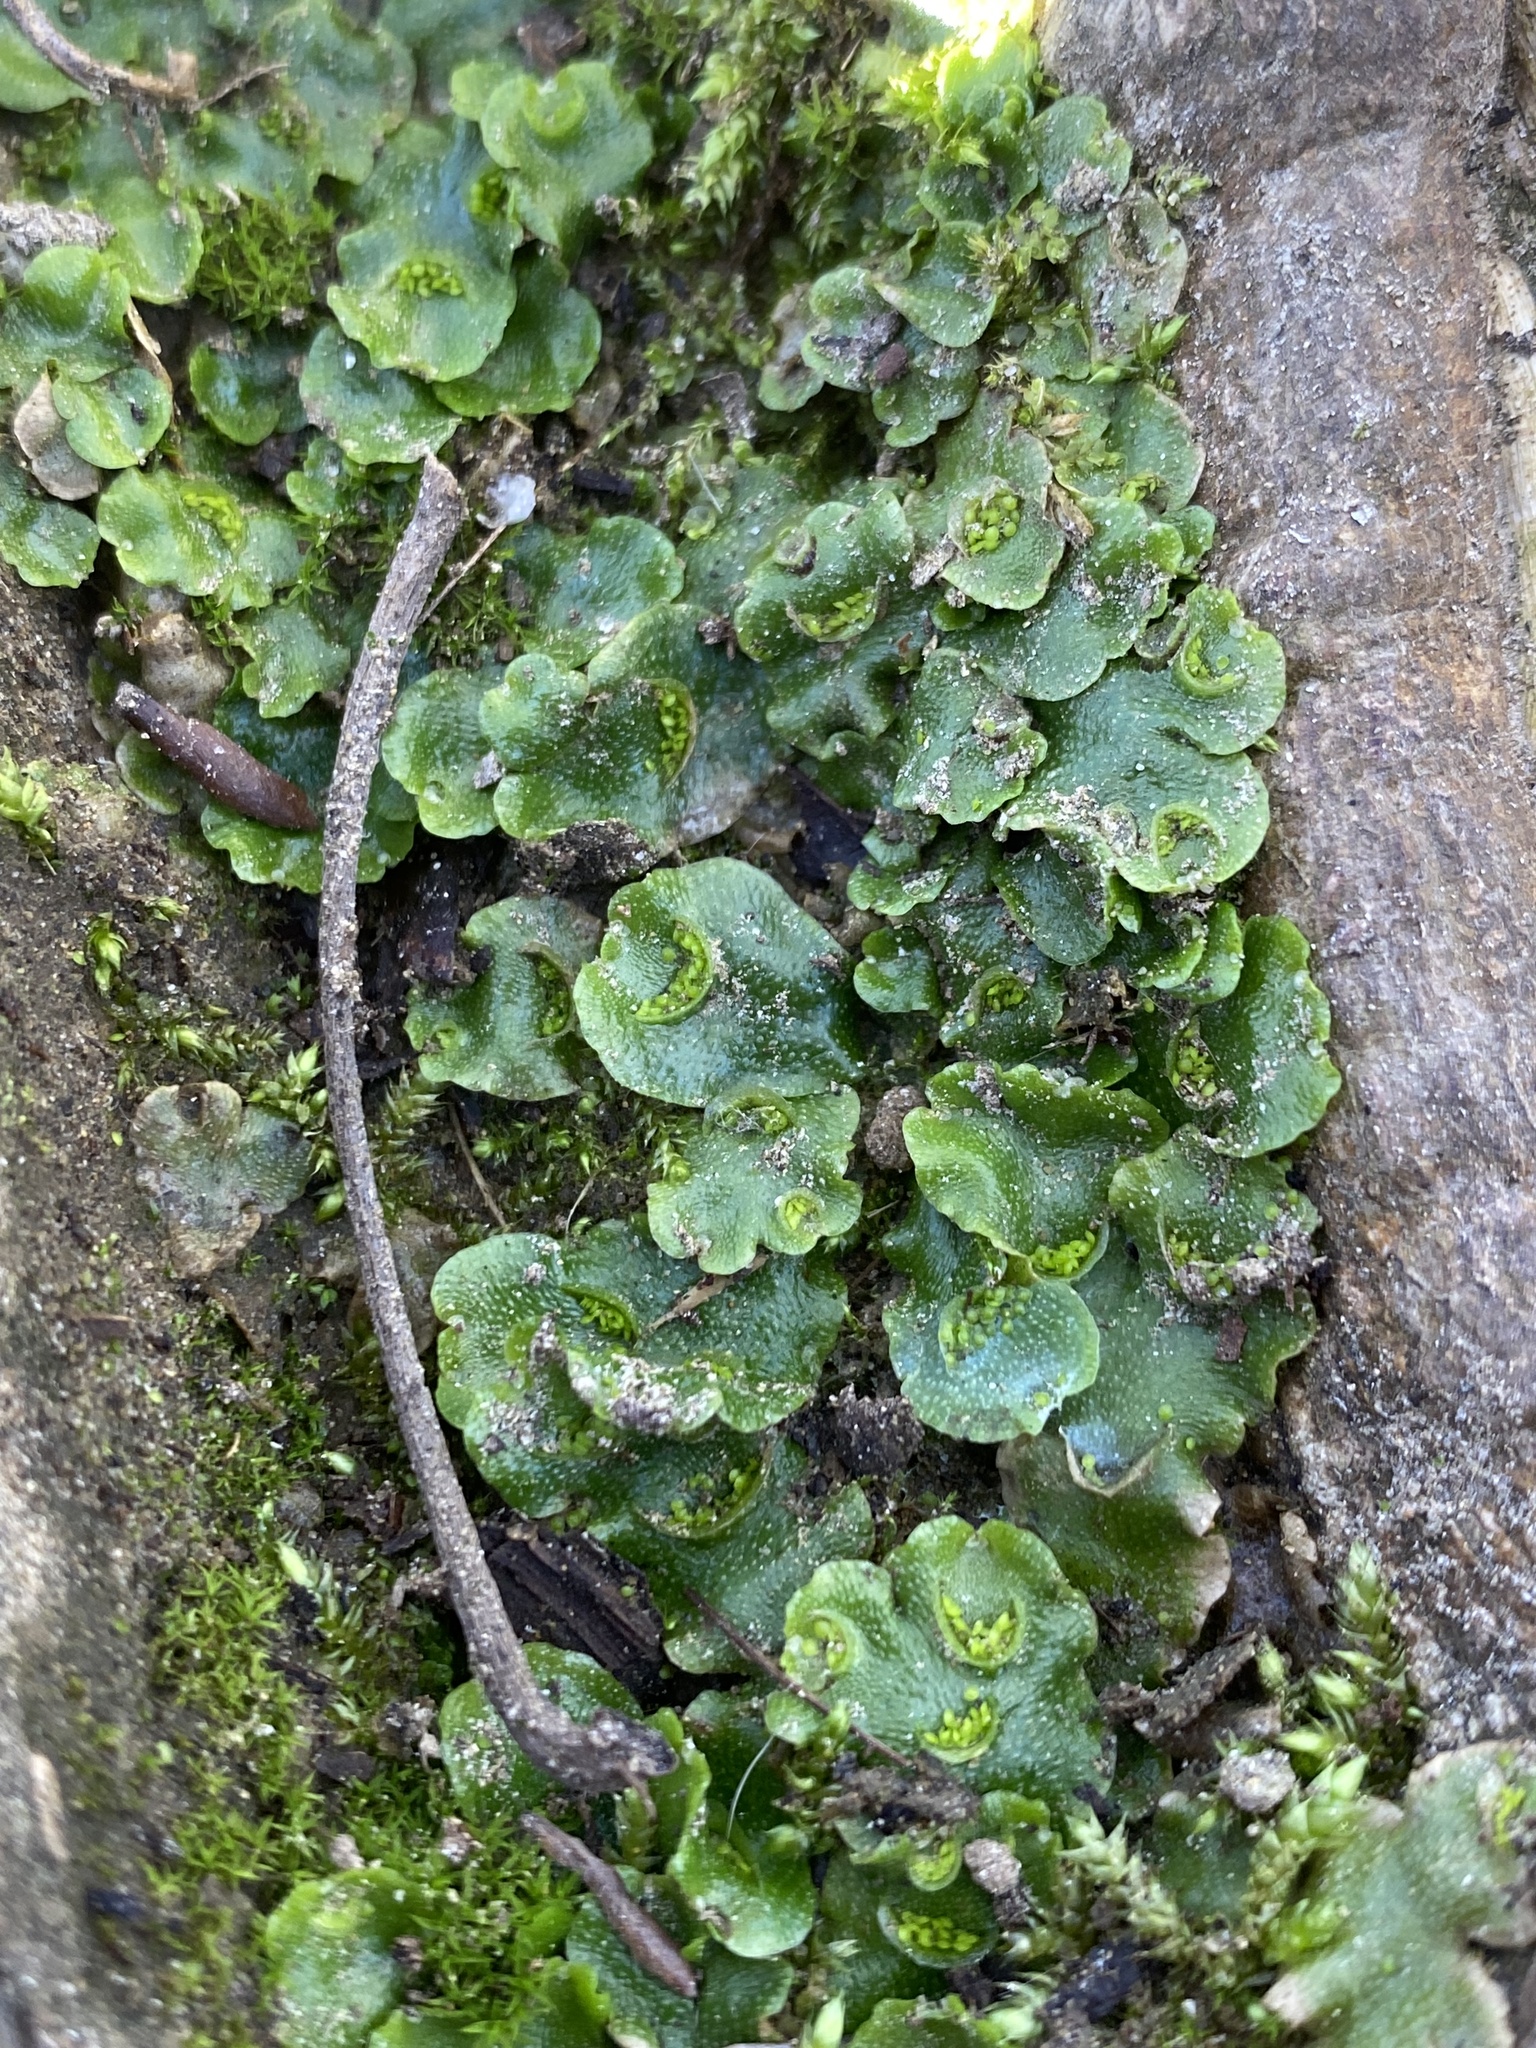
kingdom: Plantae
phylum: Marchantiophyta
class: Marchantiopsida
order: Lunulariales
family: Lunulariaceae
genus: Lunularia
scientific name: Lunularia cruciata
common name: Crescent-cup liverwort
